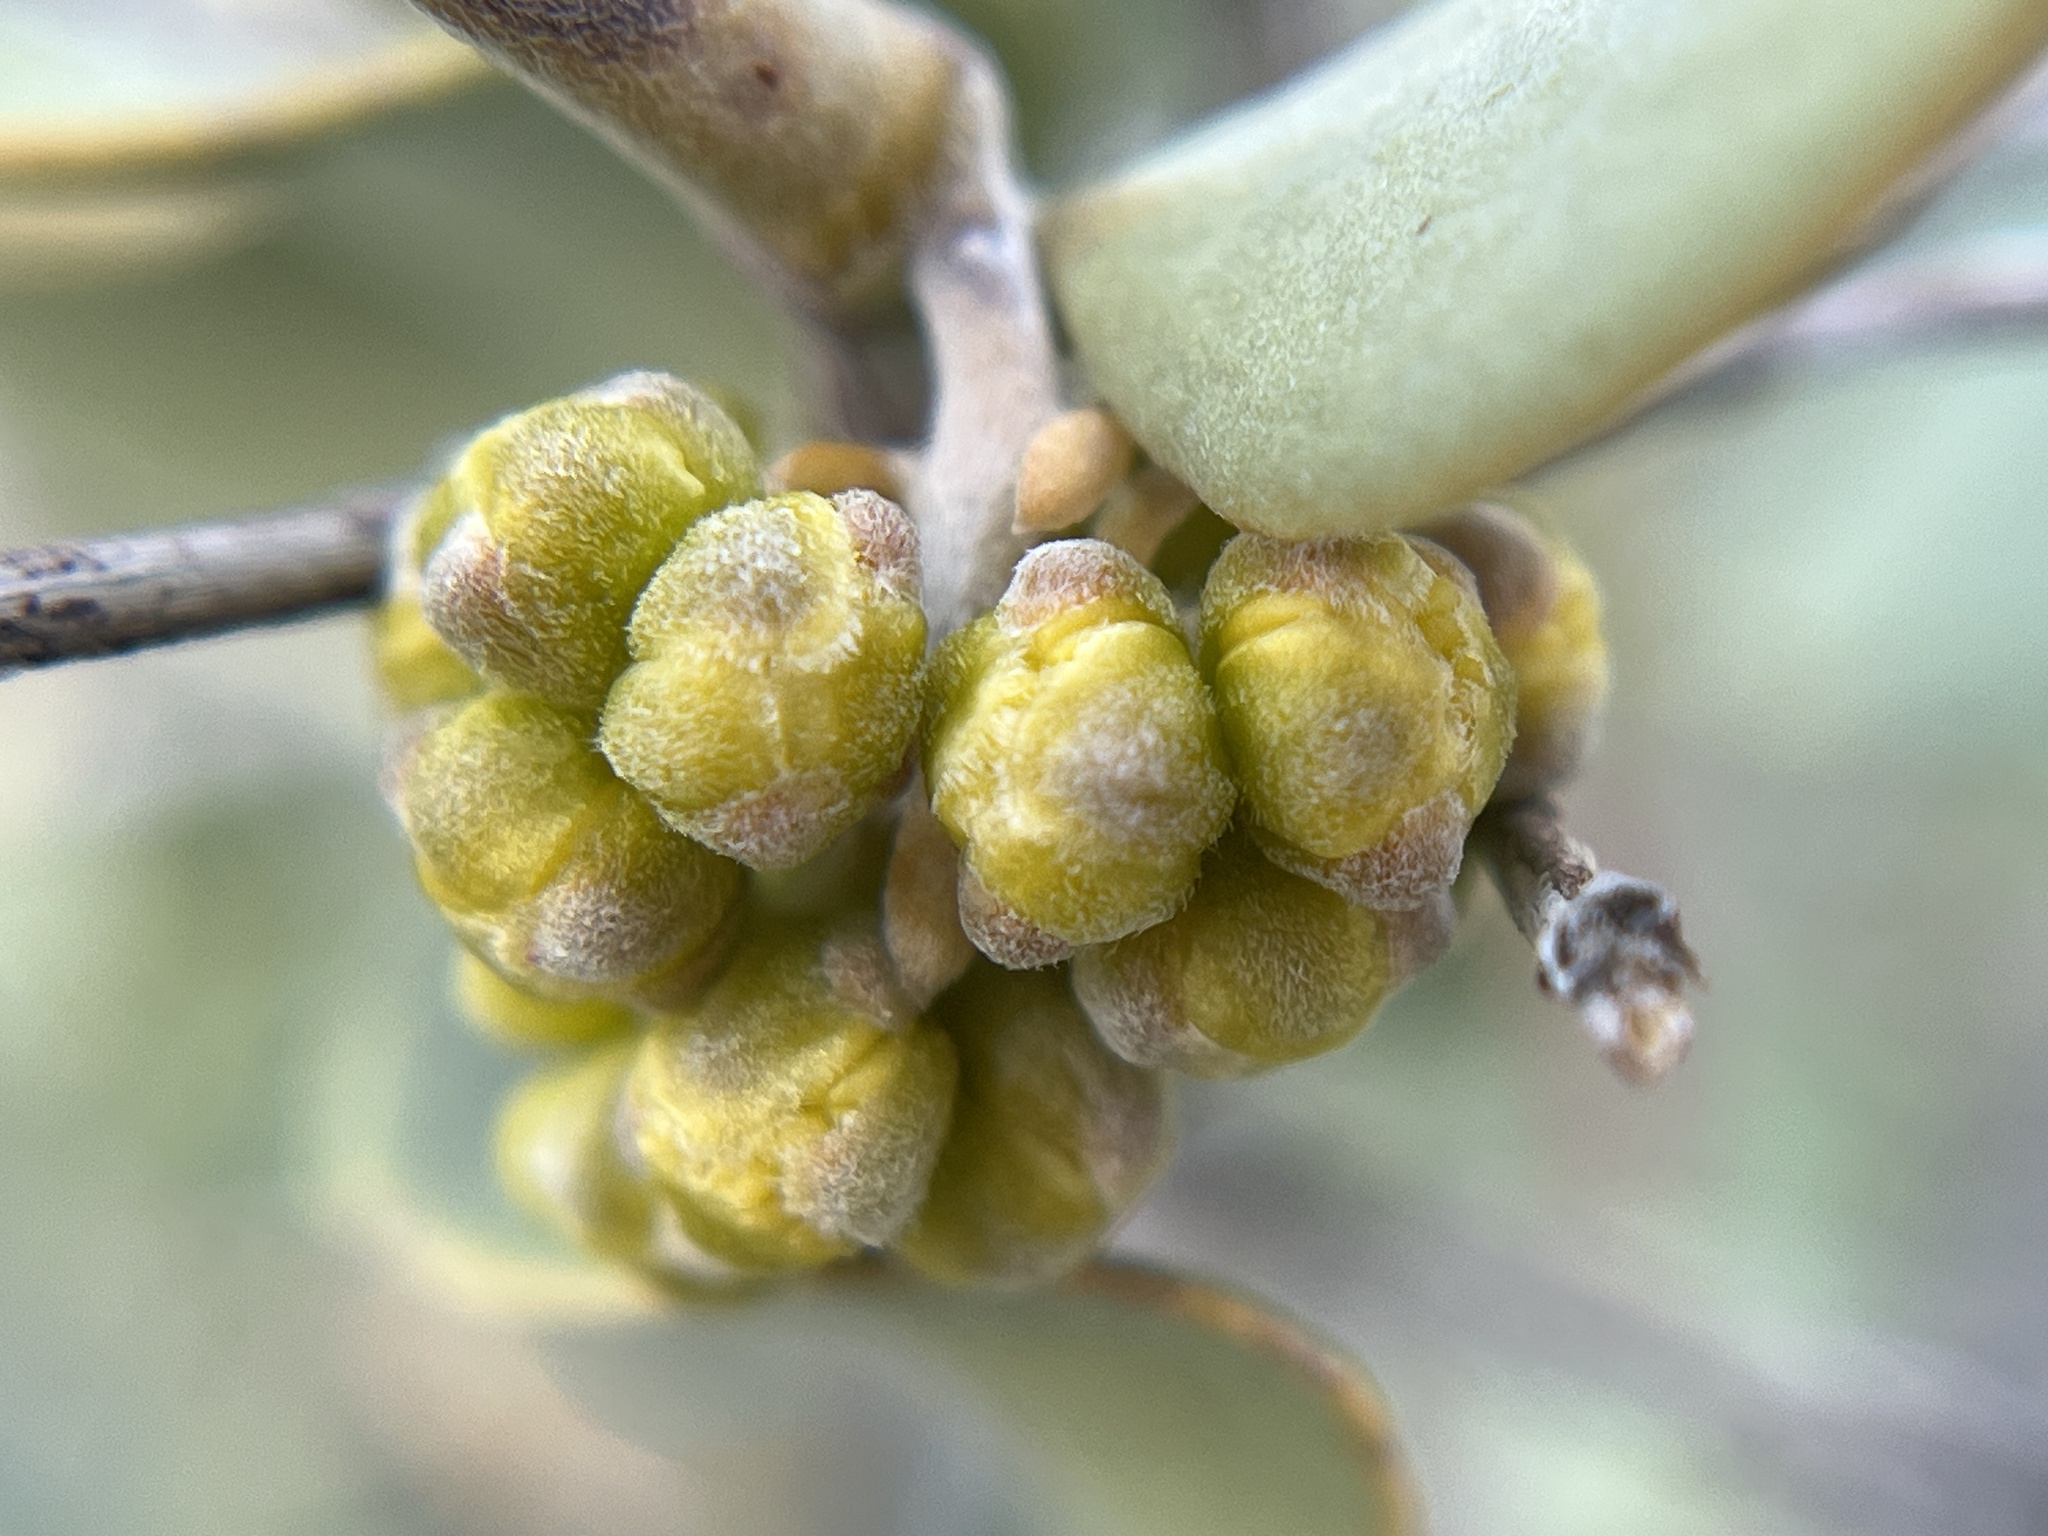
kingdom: Plantae
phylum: Tracheophyta
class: Magnoliopsida
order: Caryophyllales
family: Simmondsiaceae
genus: Simmondsia
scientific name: Simmondsia chinensis
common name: Jojoba
